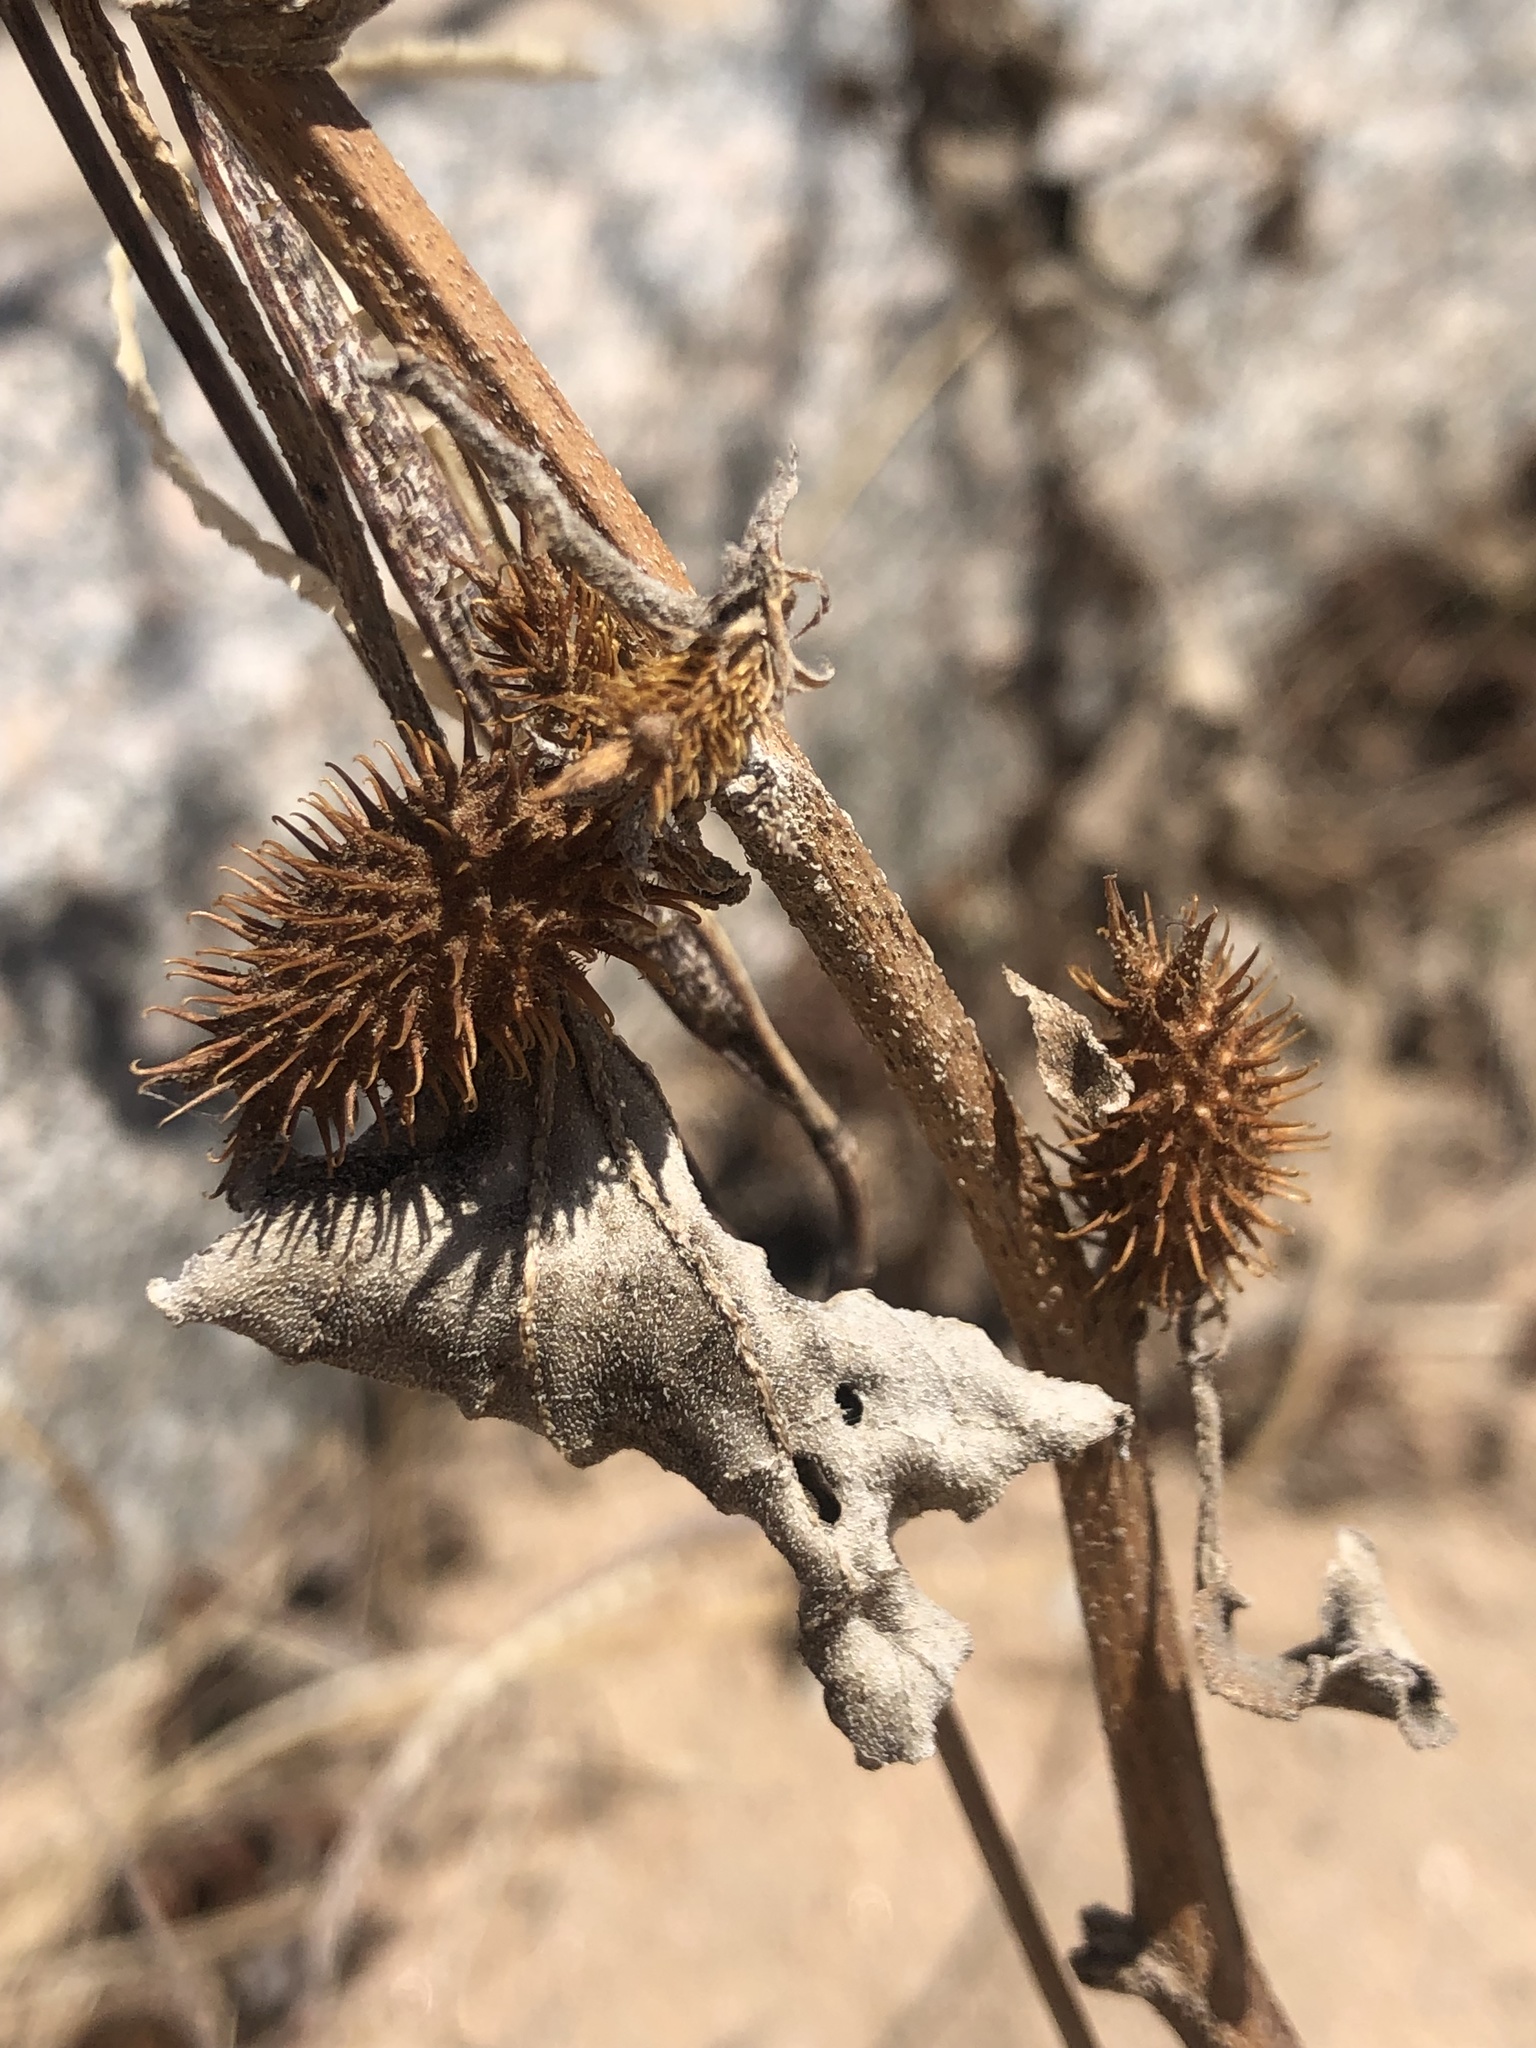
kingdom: Plantae
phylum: Tracheophyta
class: Magnoliopsida
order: Asterales
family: Asteraceae
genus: Xanthium
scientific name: Xanthium strumarium
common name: Rough cocklebur
